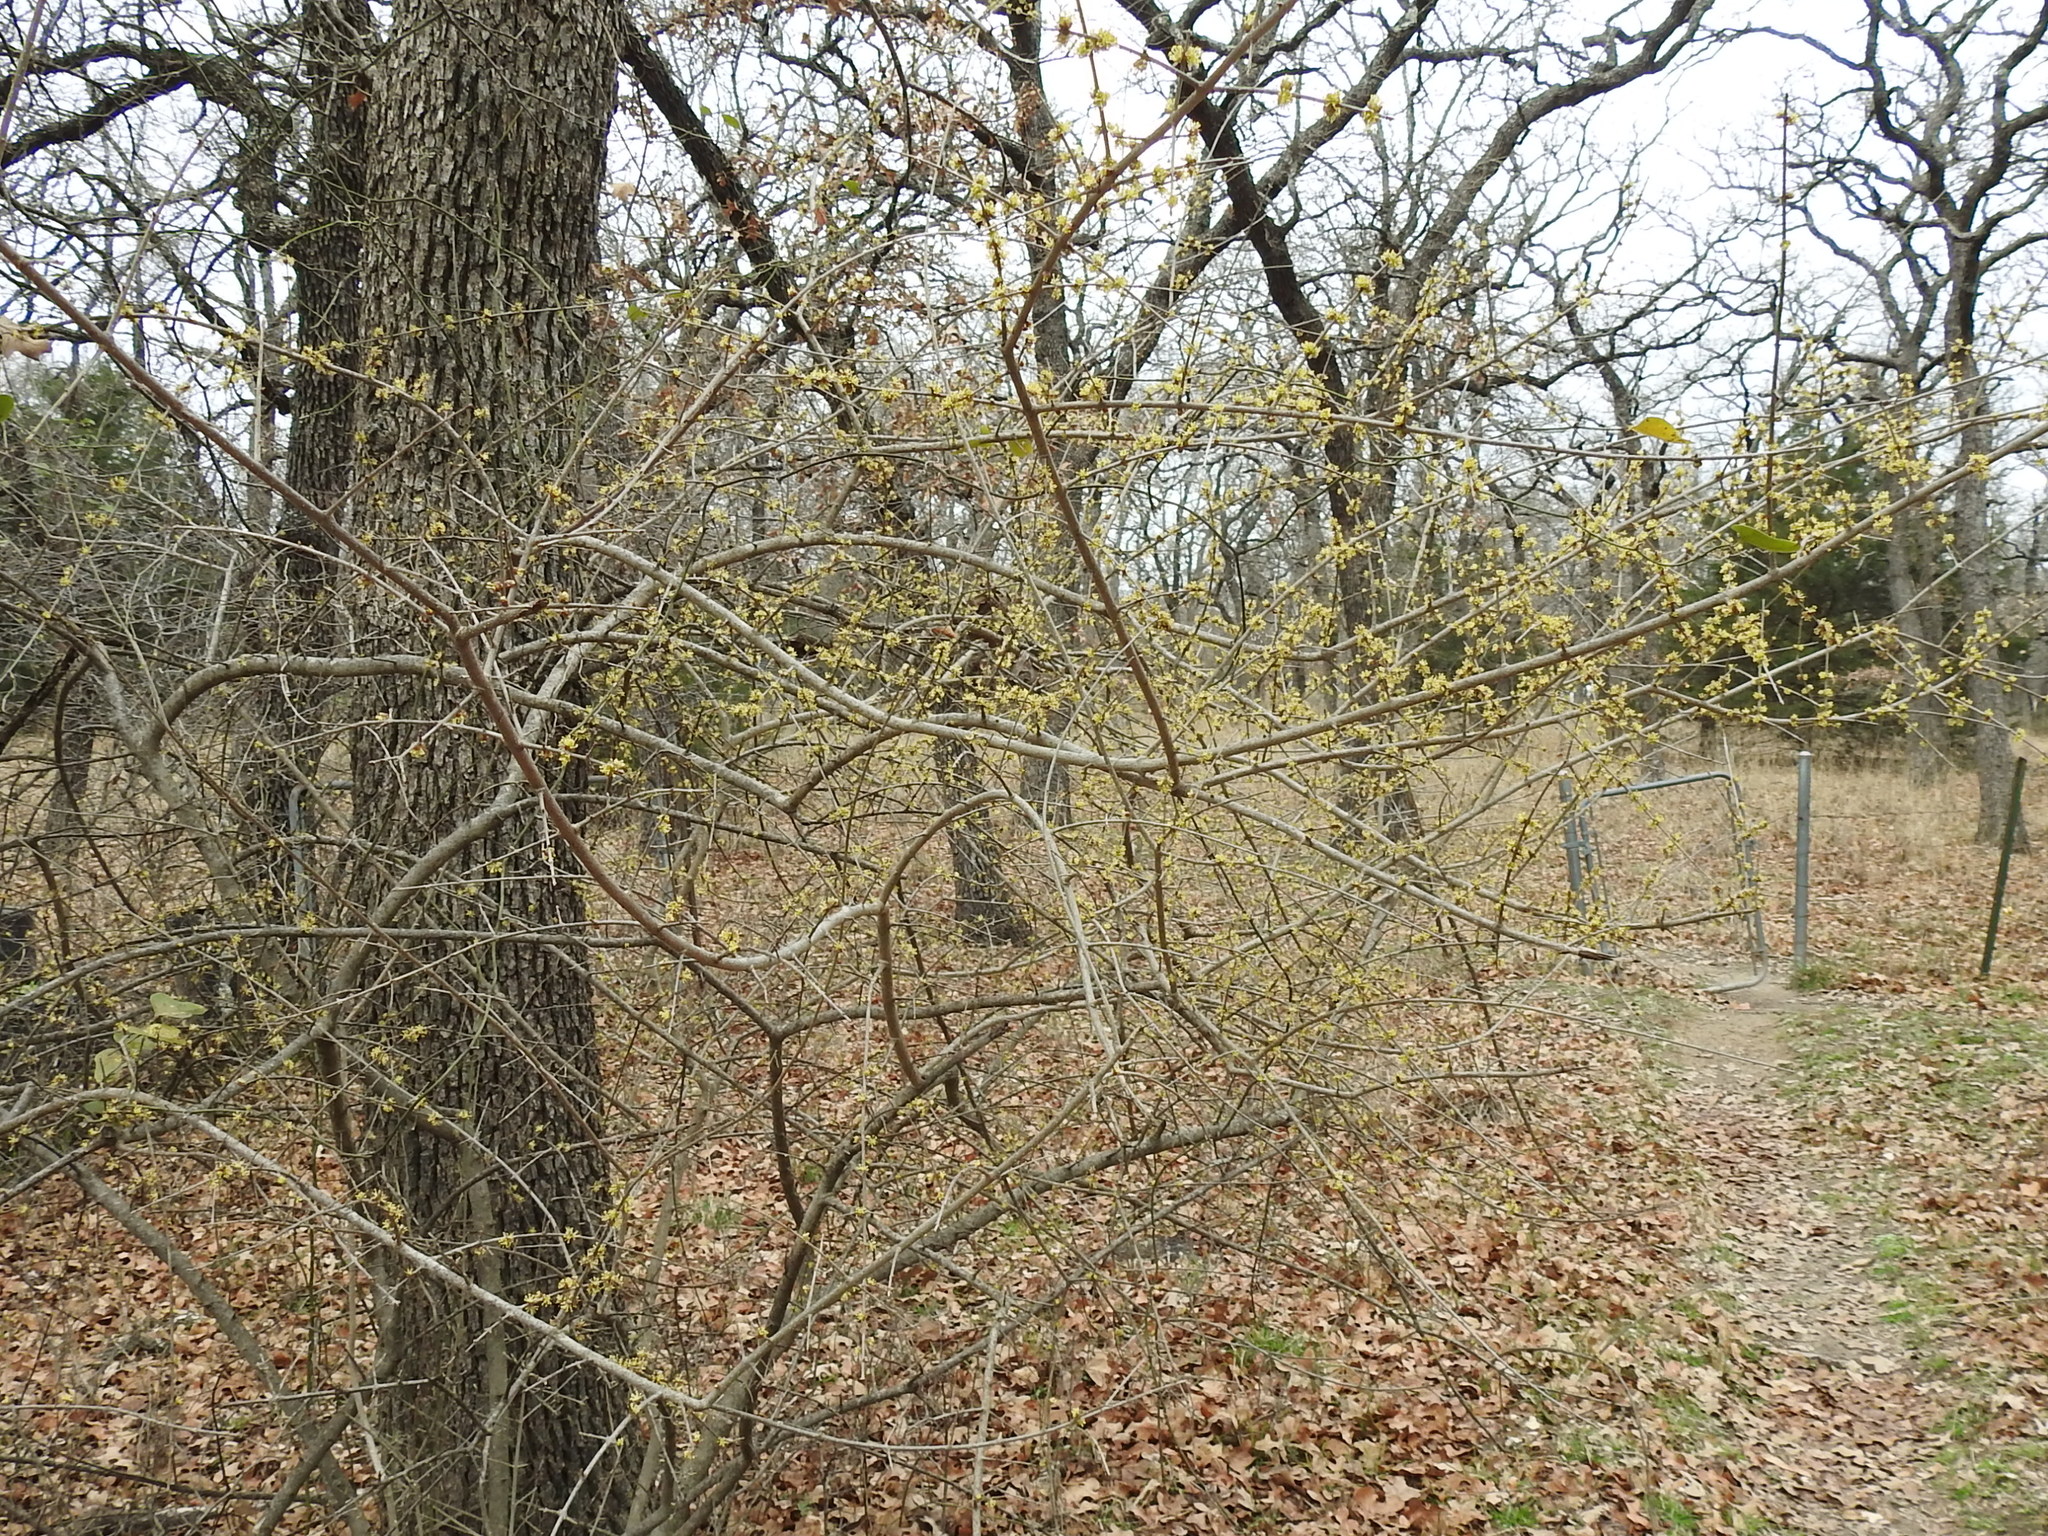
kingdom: Plantae
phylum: Tracheophyta
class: Magnoliopsida
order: Lamiales
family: Oleaceae
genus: Forestiera
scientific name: Forestiera pubescens
